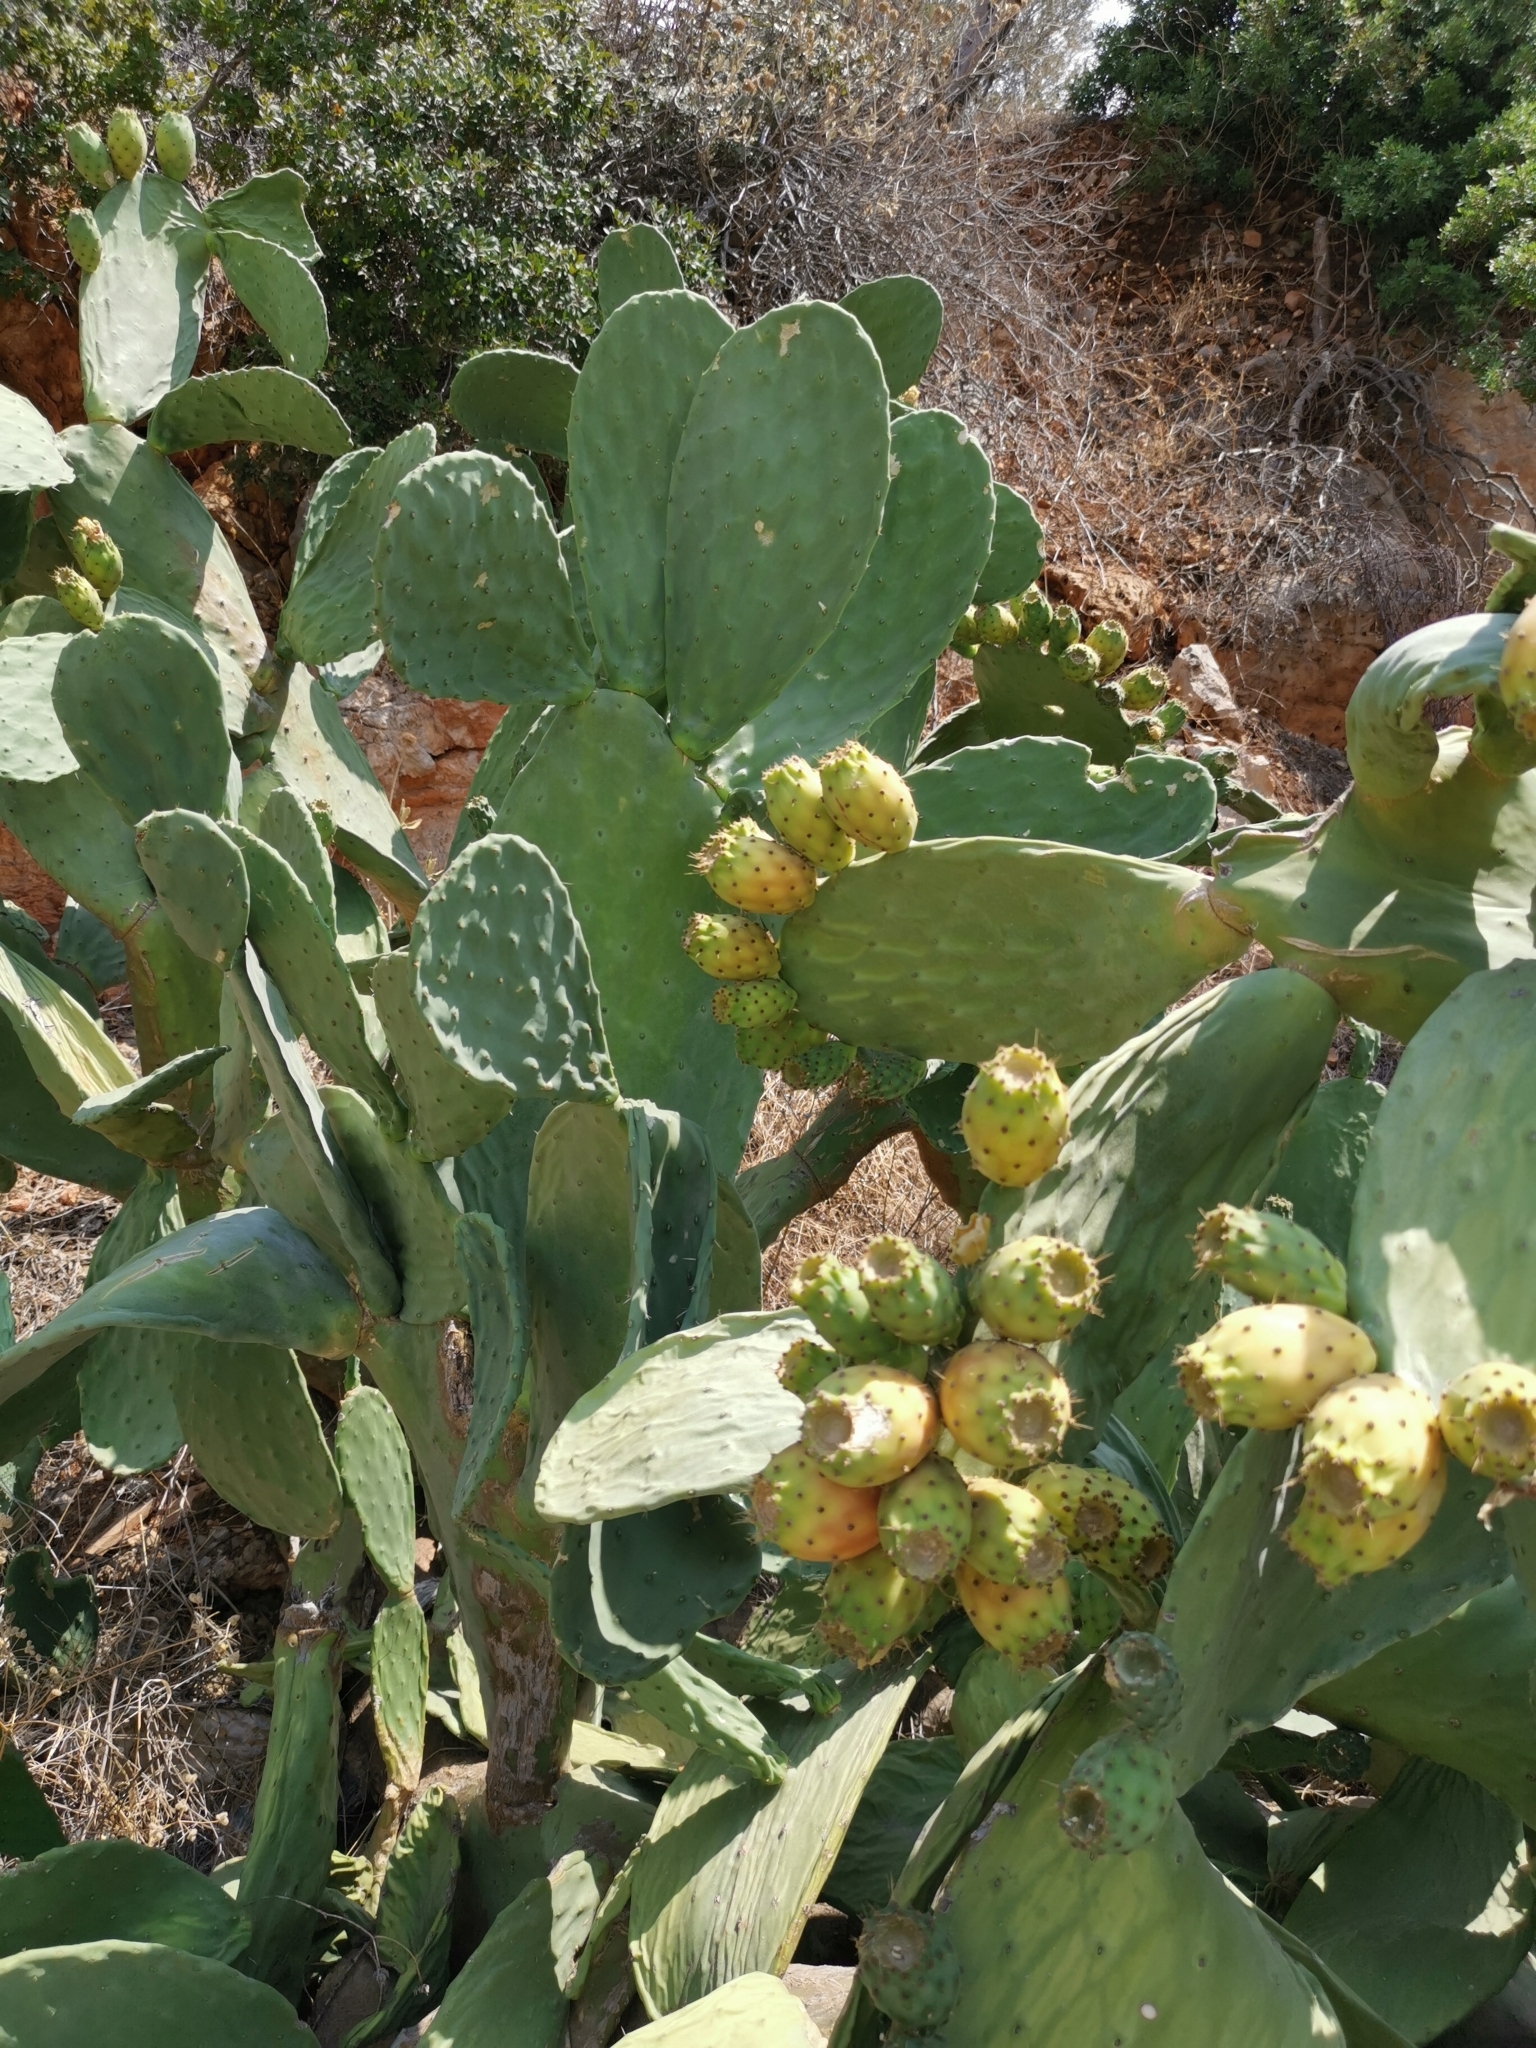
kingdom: Plantae
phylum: Tracheophyta
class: Magnoliopsida
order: Caryophyllales
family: Cactaceae
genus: Opuntia
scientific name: Opuntia ficus-indica
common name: Barbary fig
